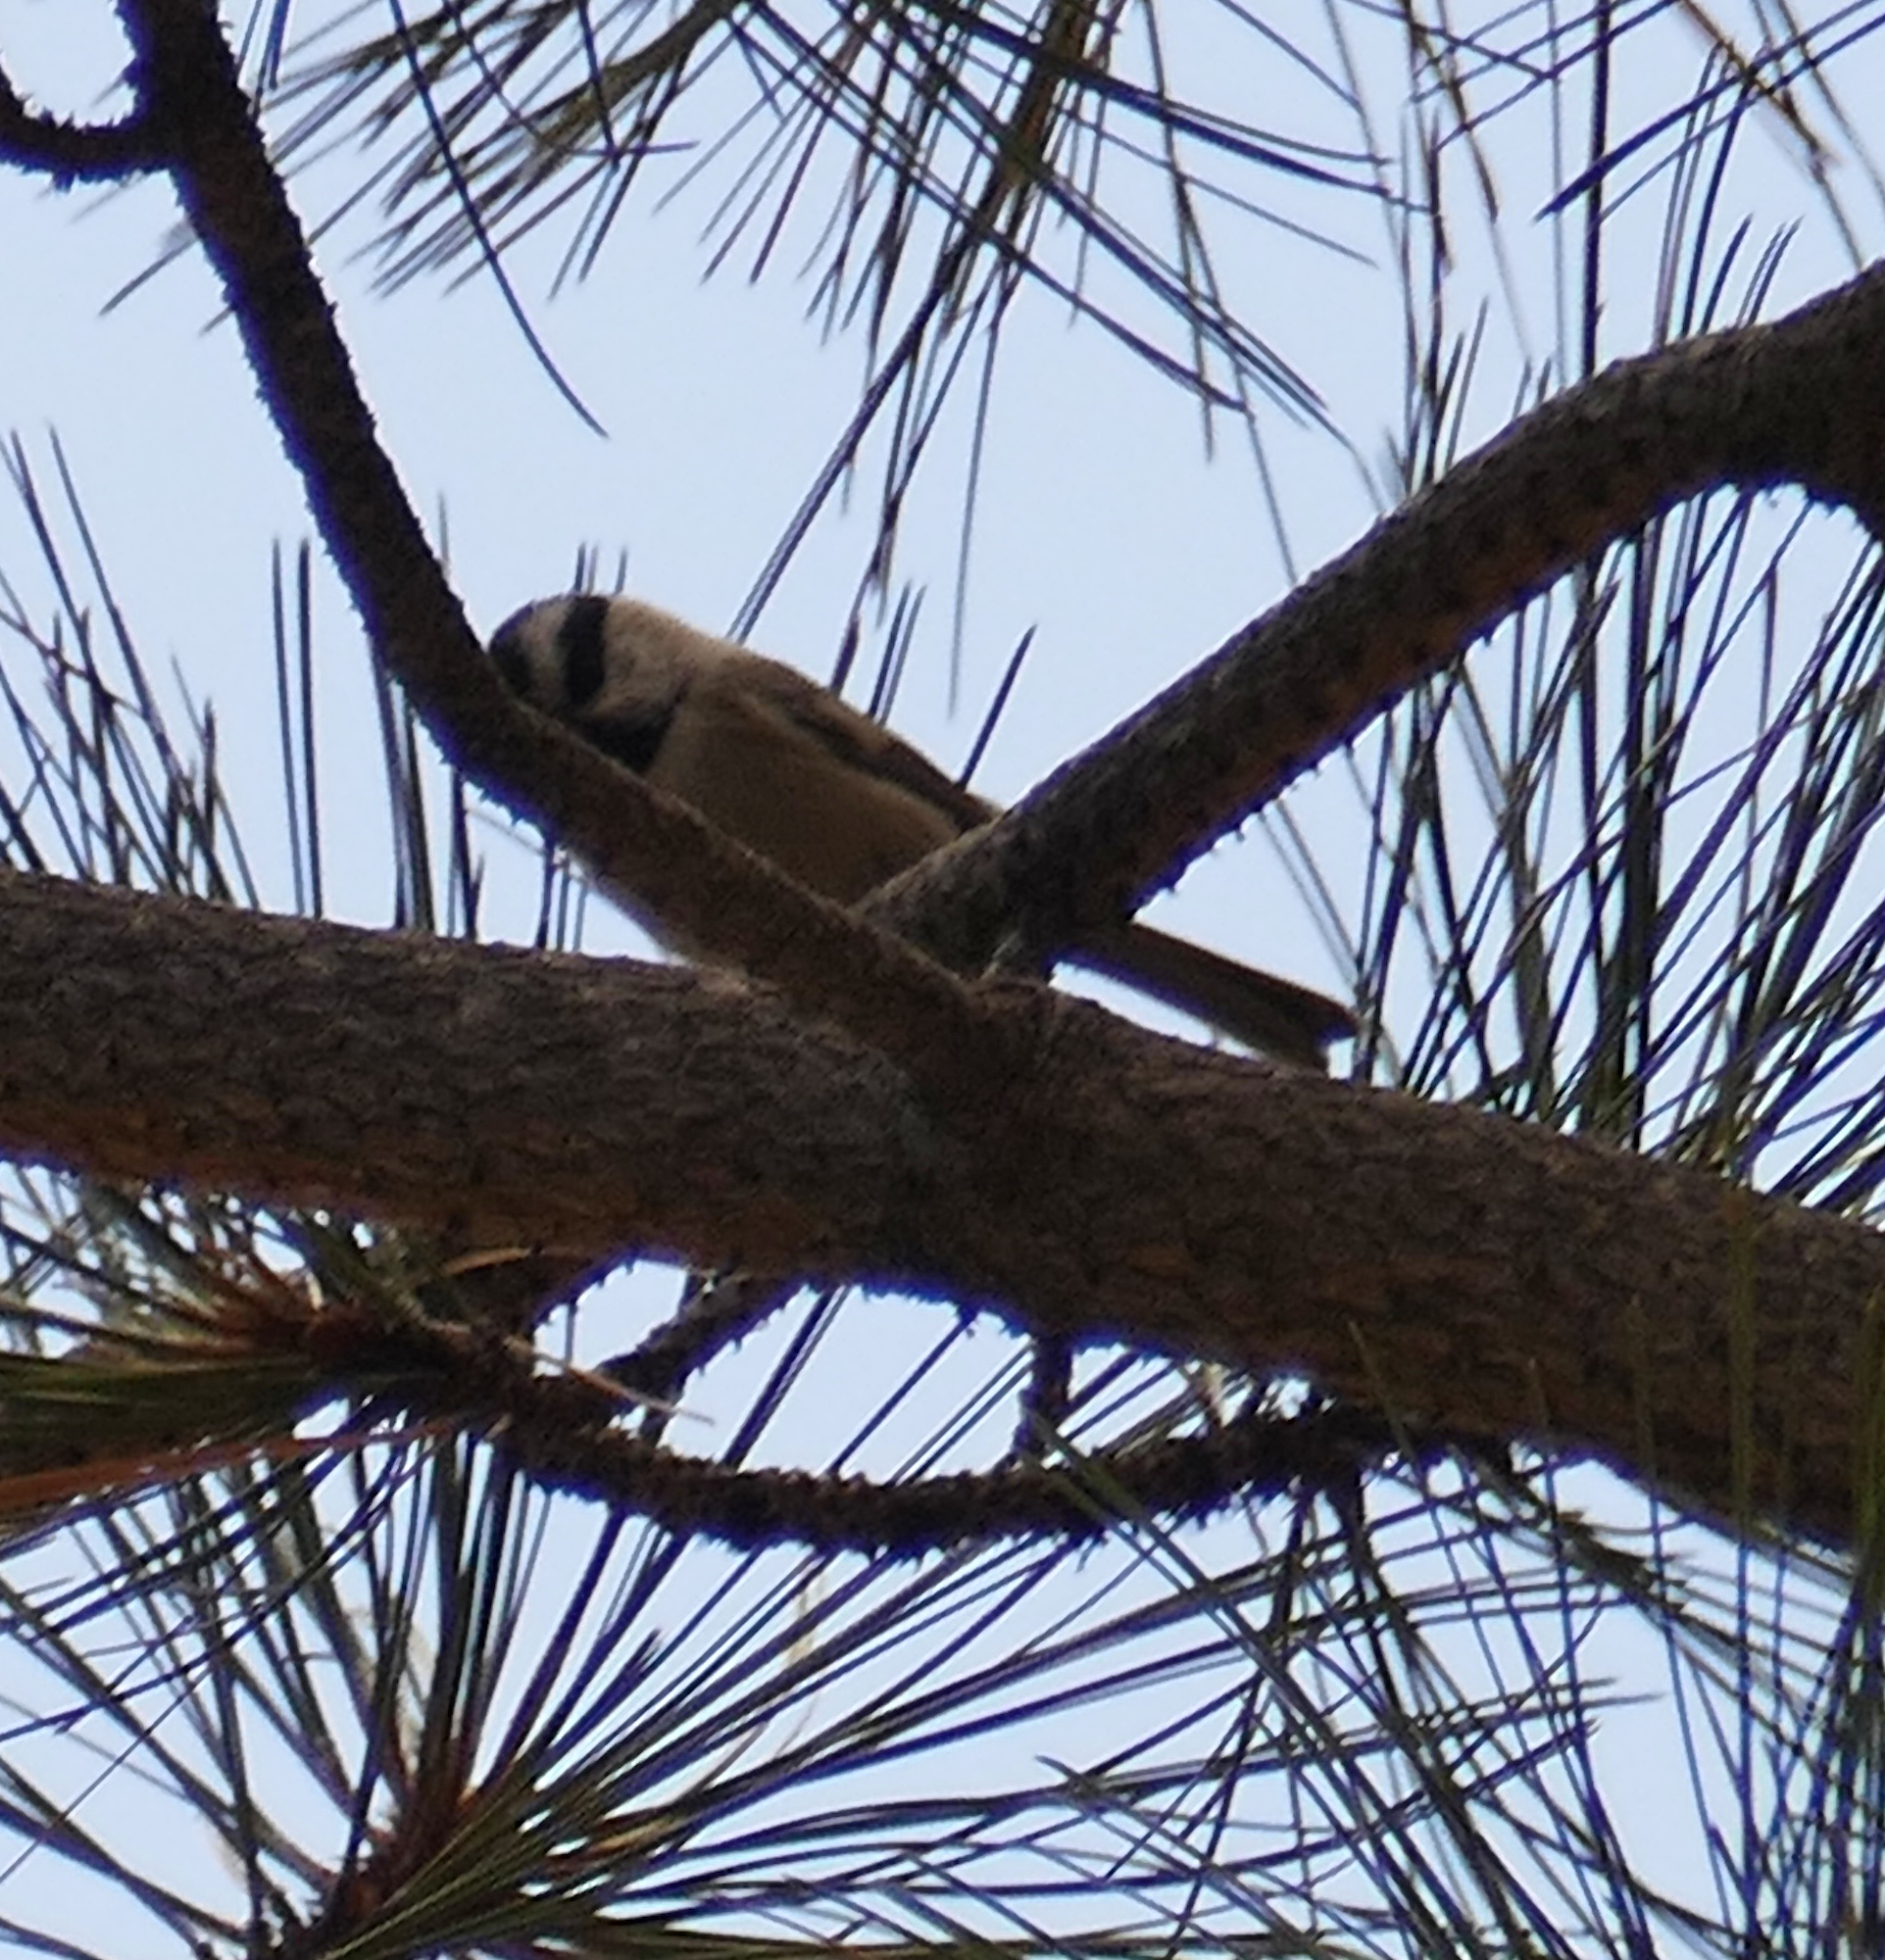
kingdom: Animalia
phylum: Chordata
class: Aves
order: Passeriformes
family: Paridae
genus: Poecile
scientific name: Poecile gambeli
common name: Mountain chickadee
